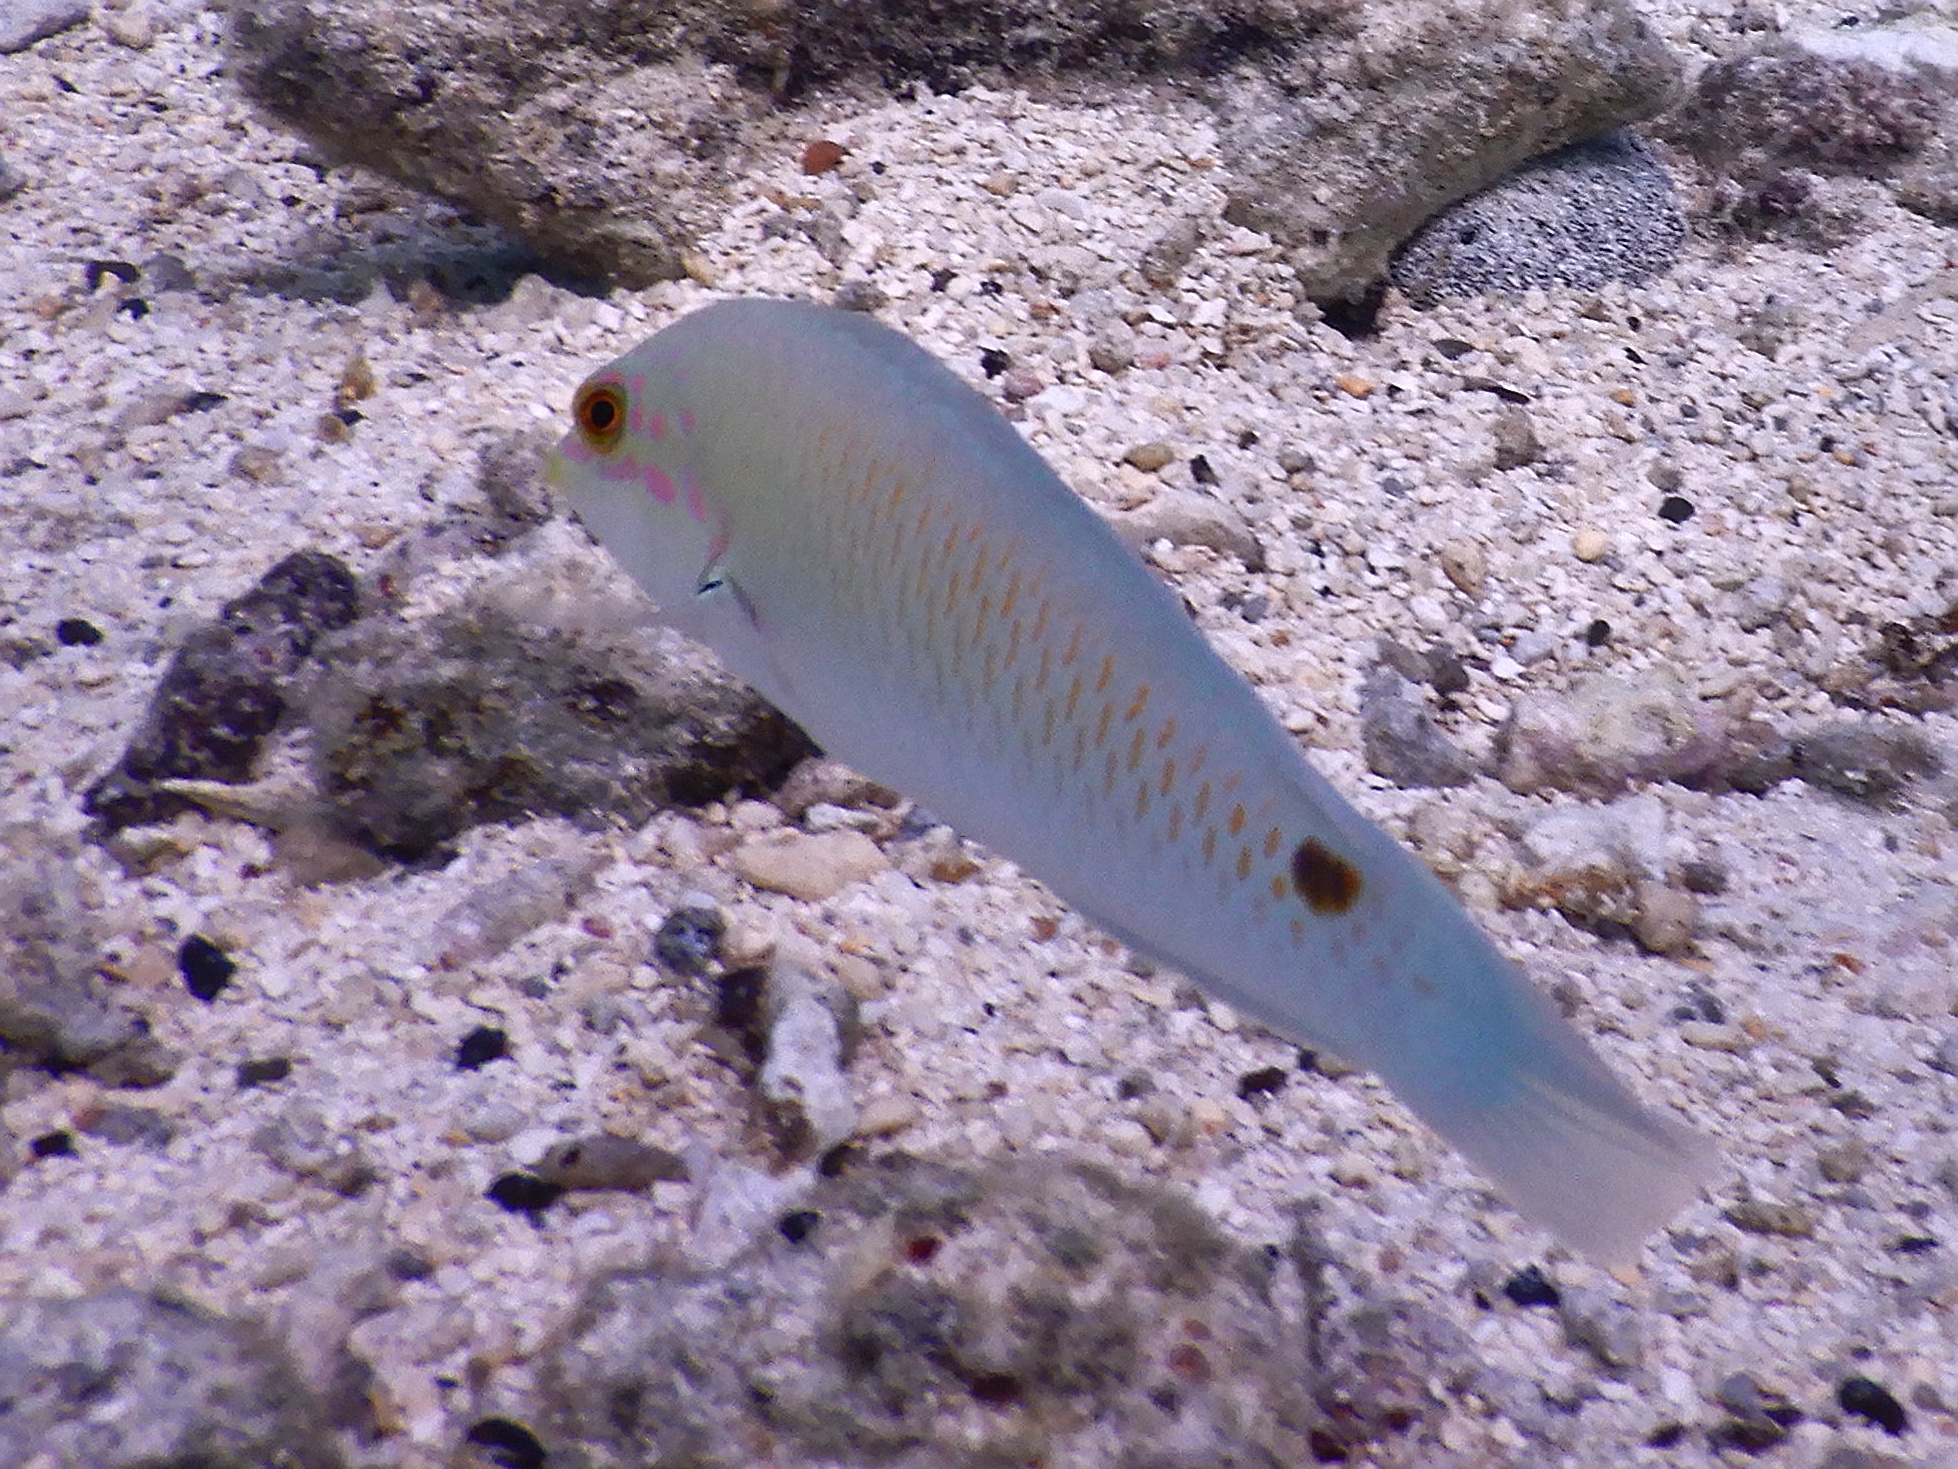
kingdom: Animalia
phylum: Chordata
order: Perciformes
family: Labridae
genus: Halichoeres
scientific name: Halichoeres trimaculatus
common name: Three-spot wrasse
